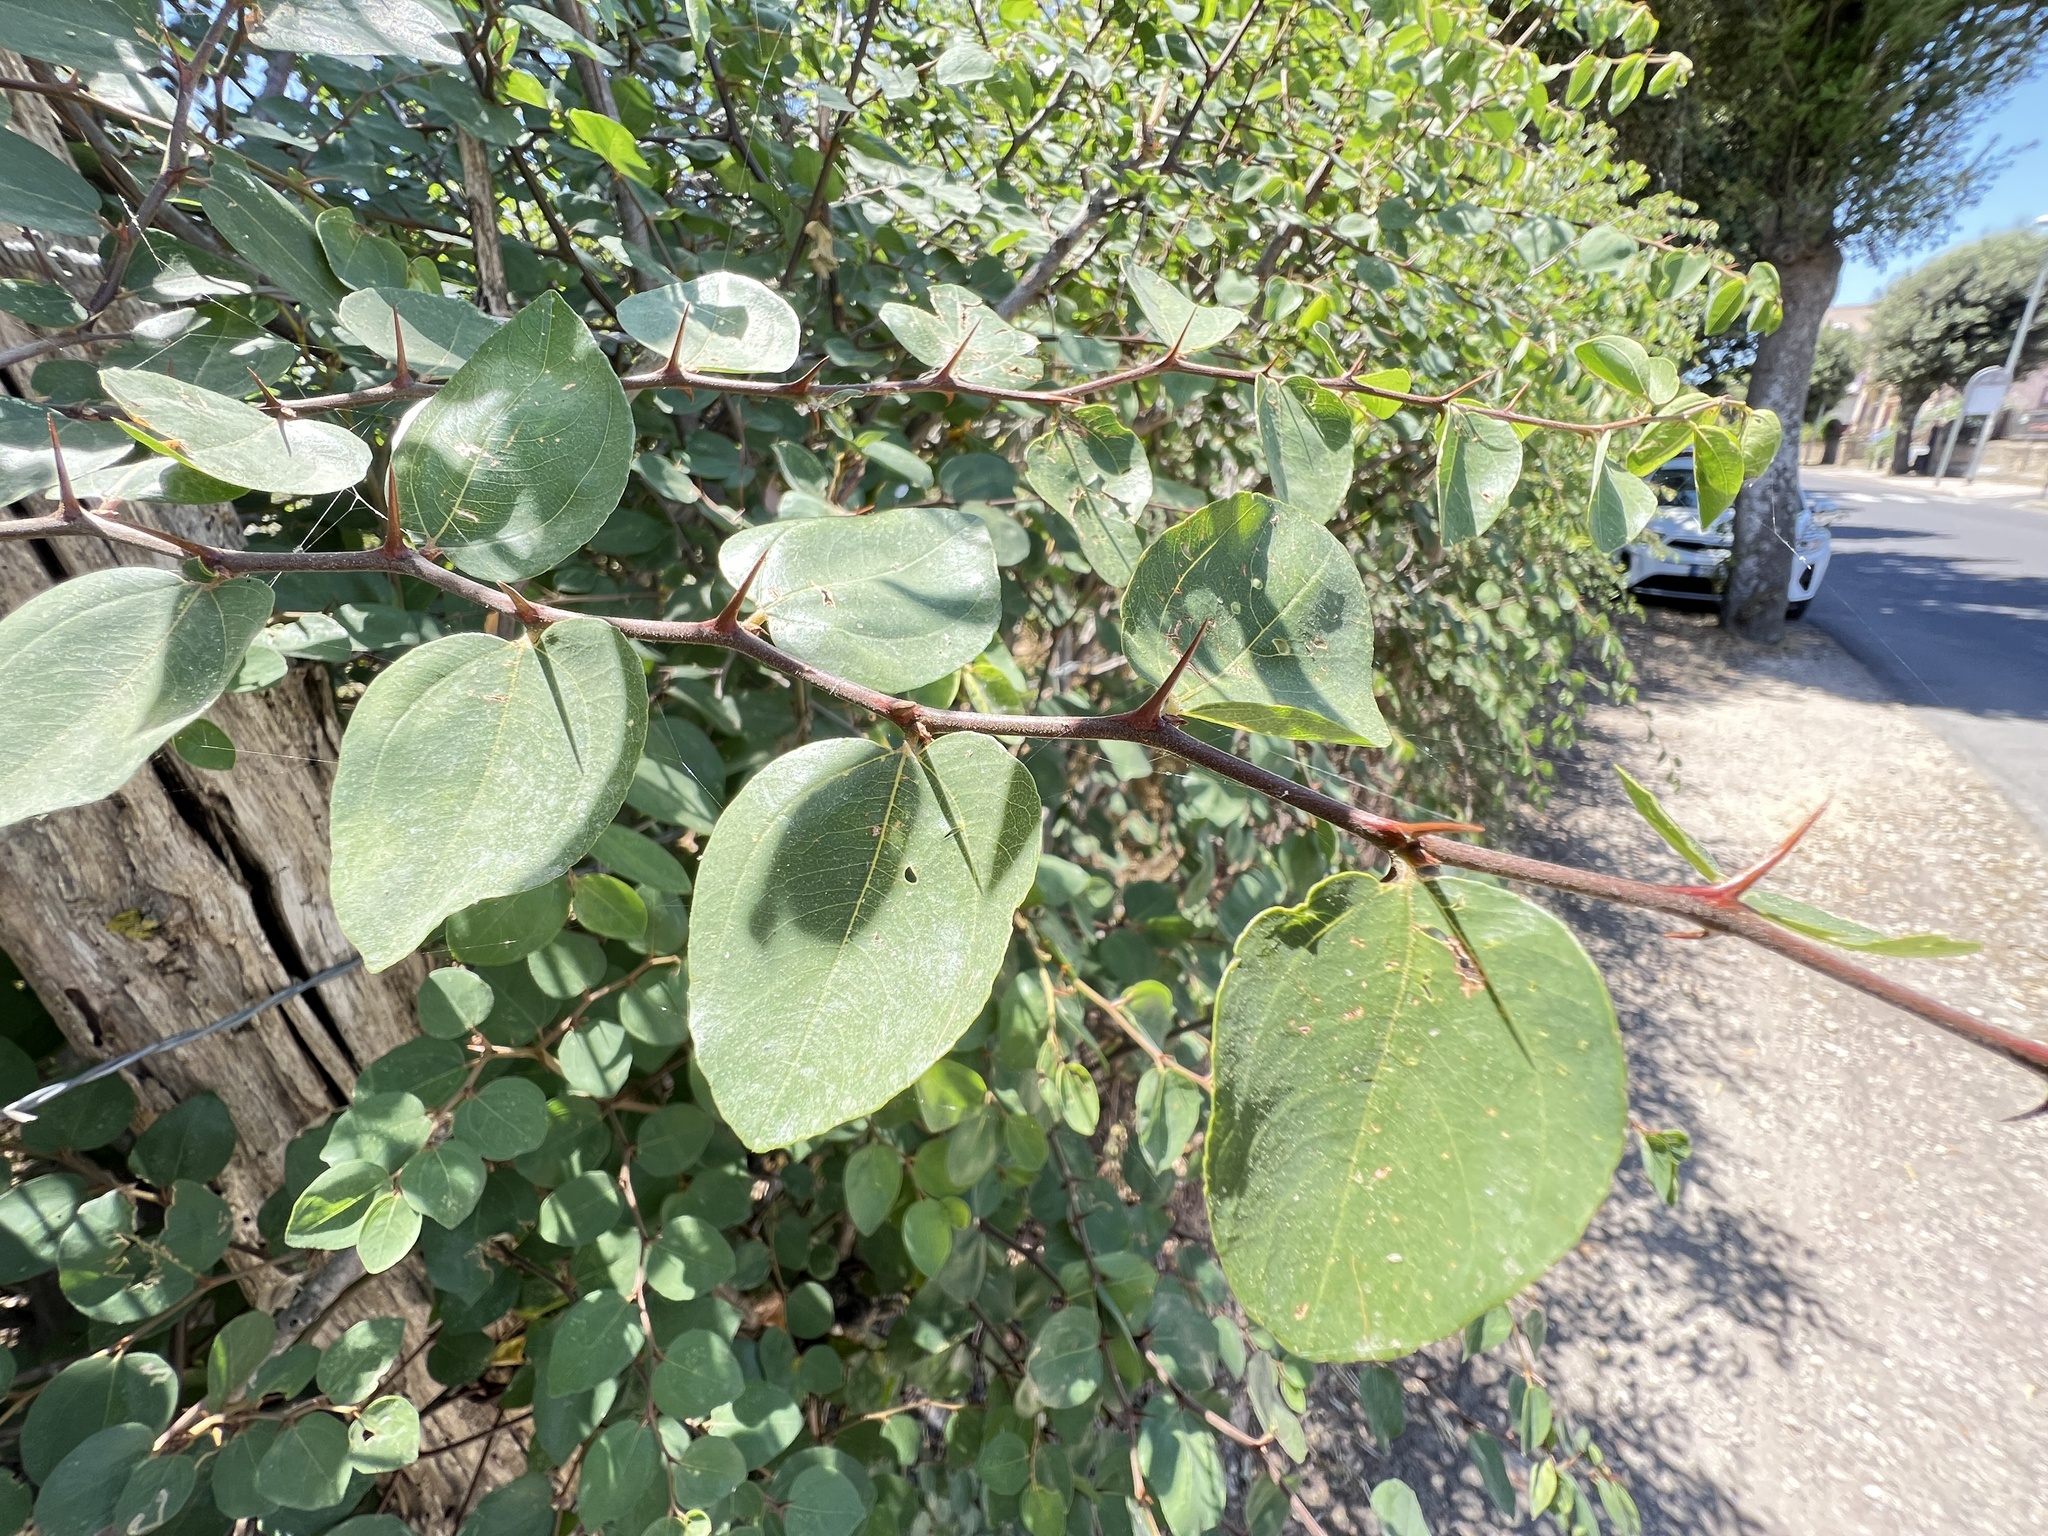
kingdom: Plantae
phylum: Tracheophyta
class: Magnoliopsida
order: Rosales
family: Rhamnaceae
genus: Paliurus
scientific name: Paliurus spina-christi
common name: Jeruselem thorn
